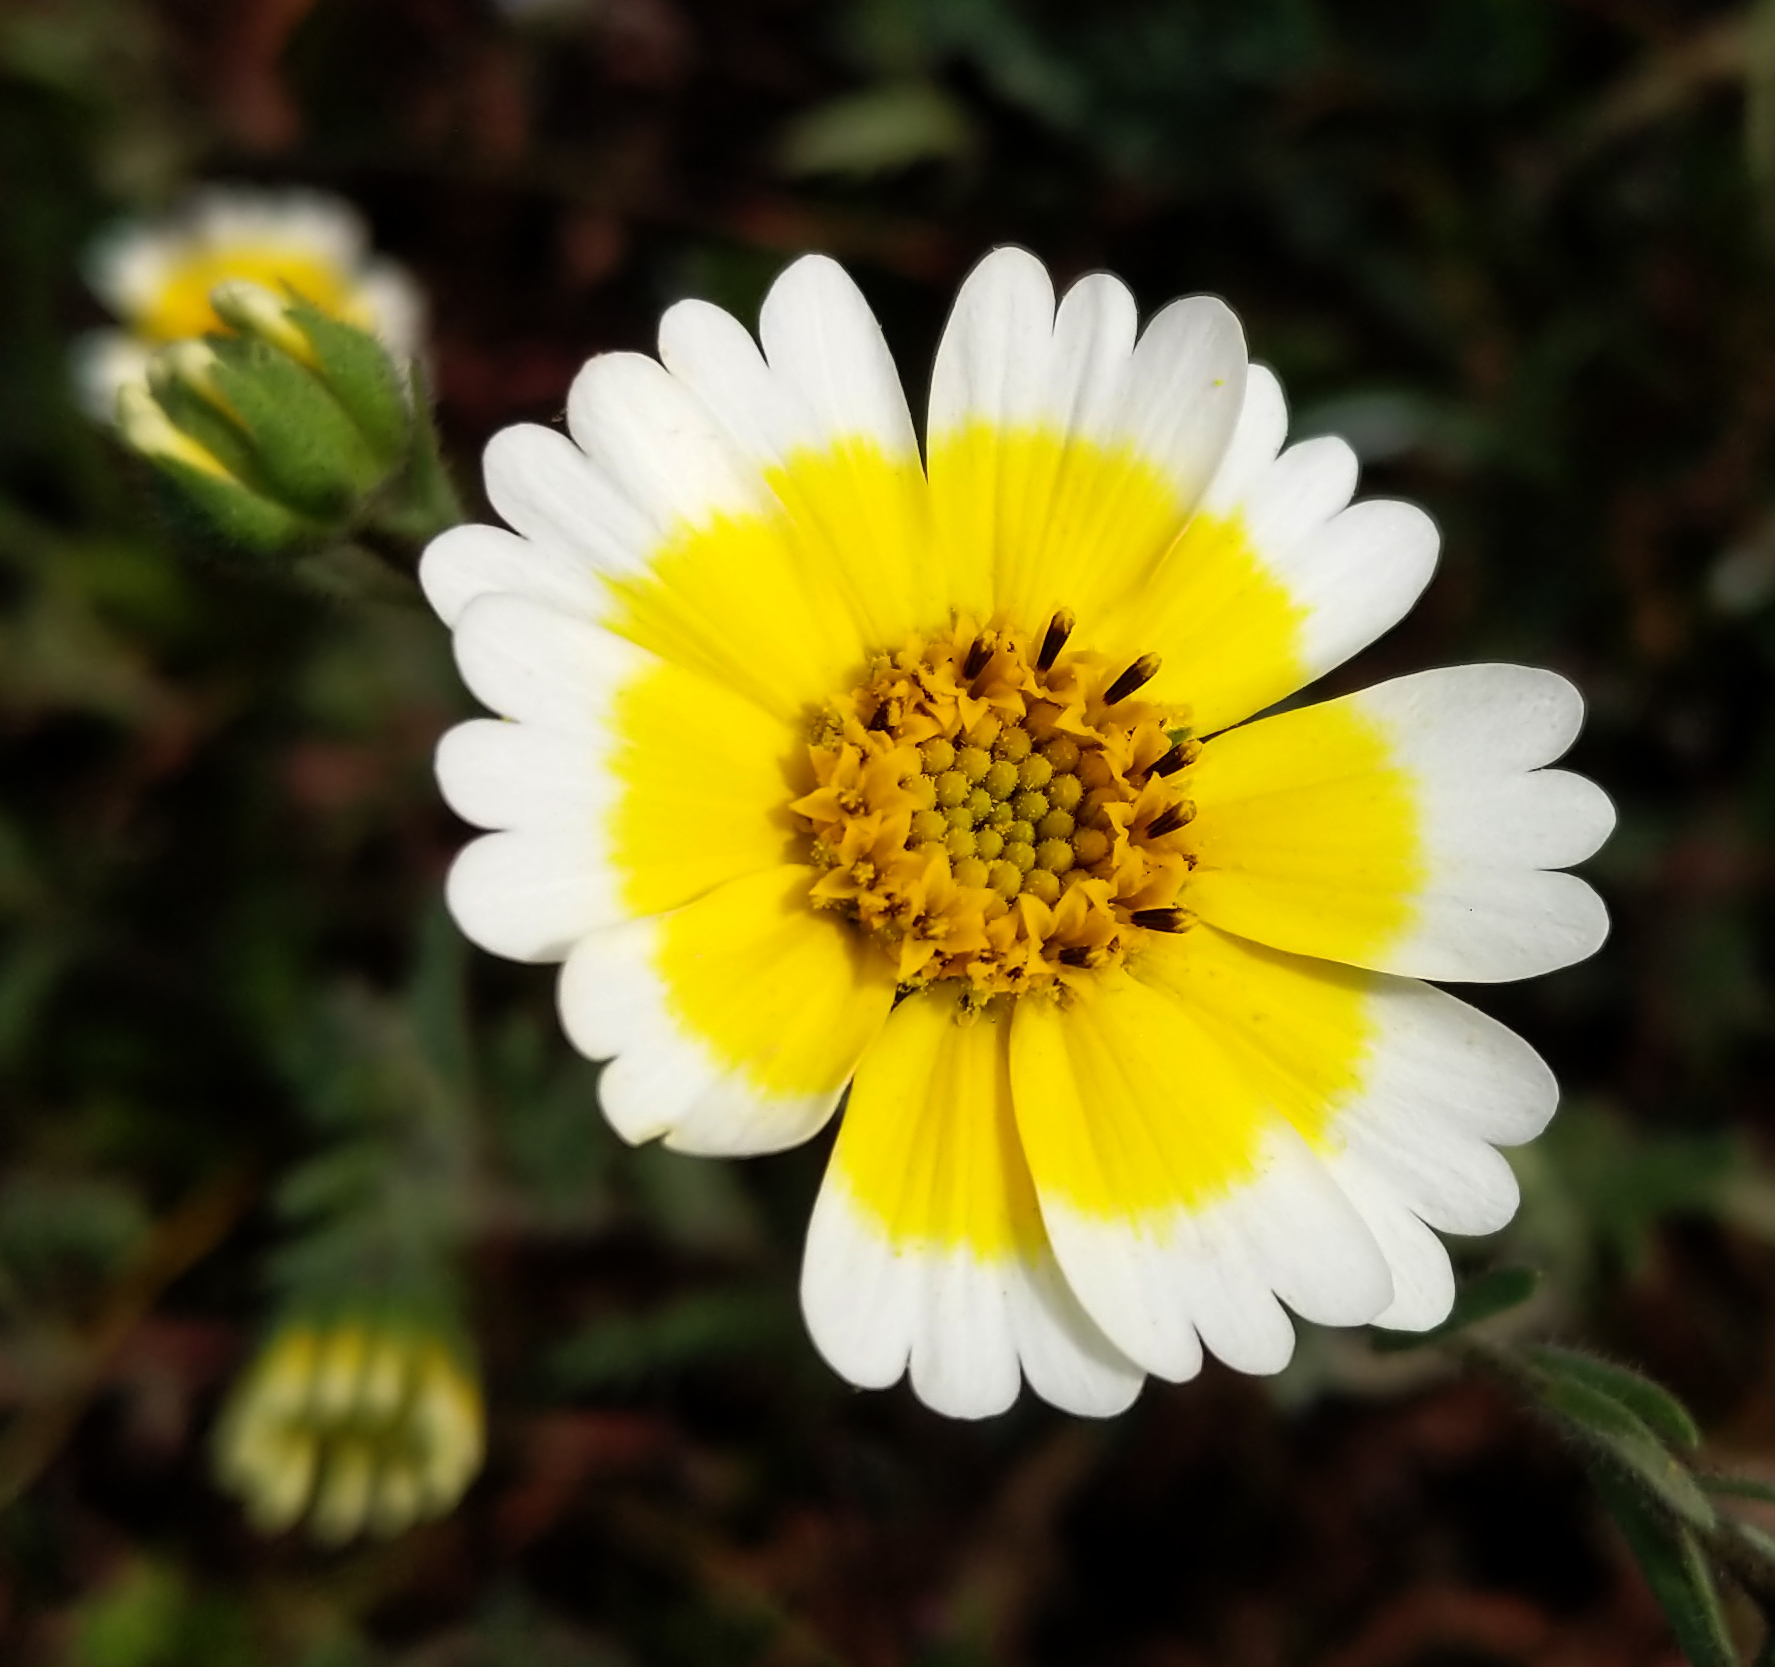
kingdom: Plantae
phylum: Tracheophyta
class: Magnoliopsida
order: Asterales
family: Asteraceae
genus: Layia
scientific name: Layia gaillardioides
